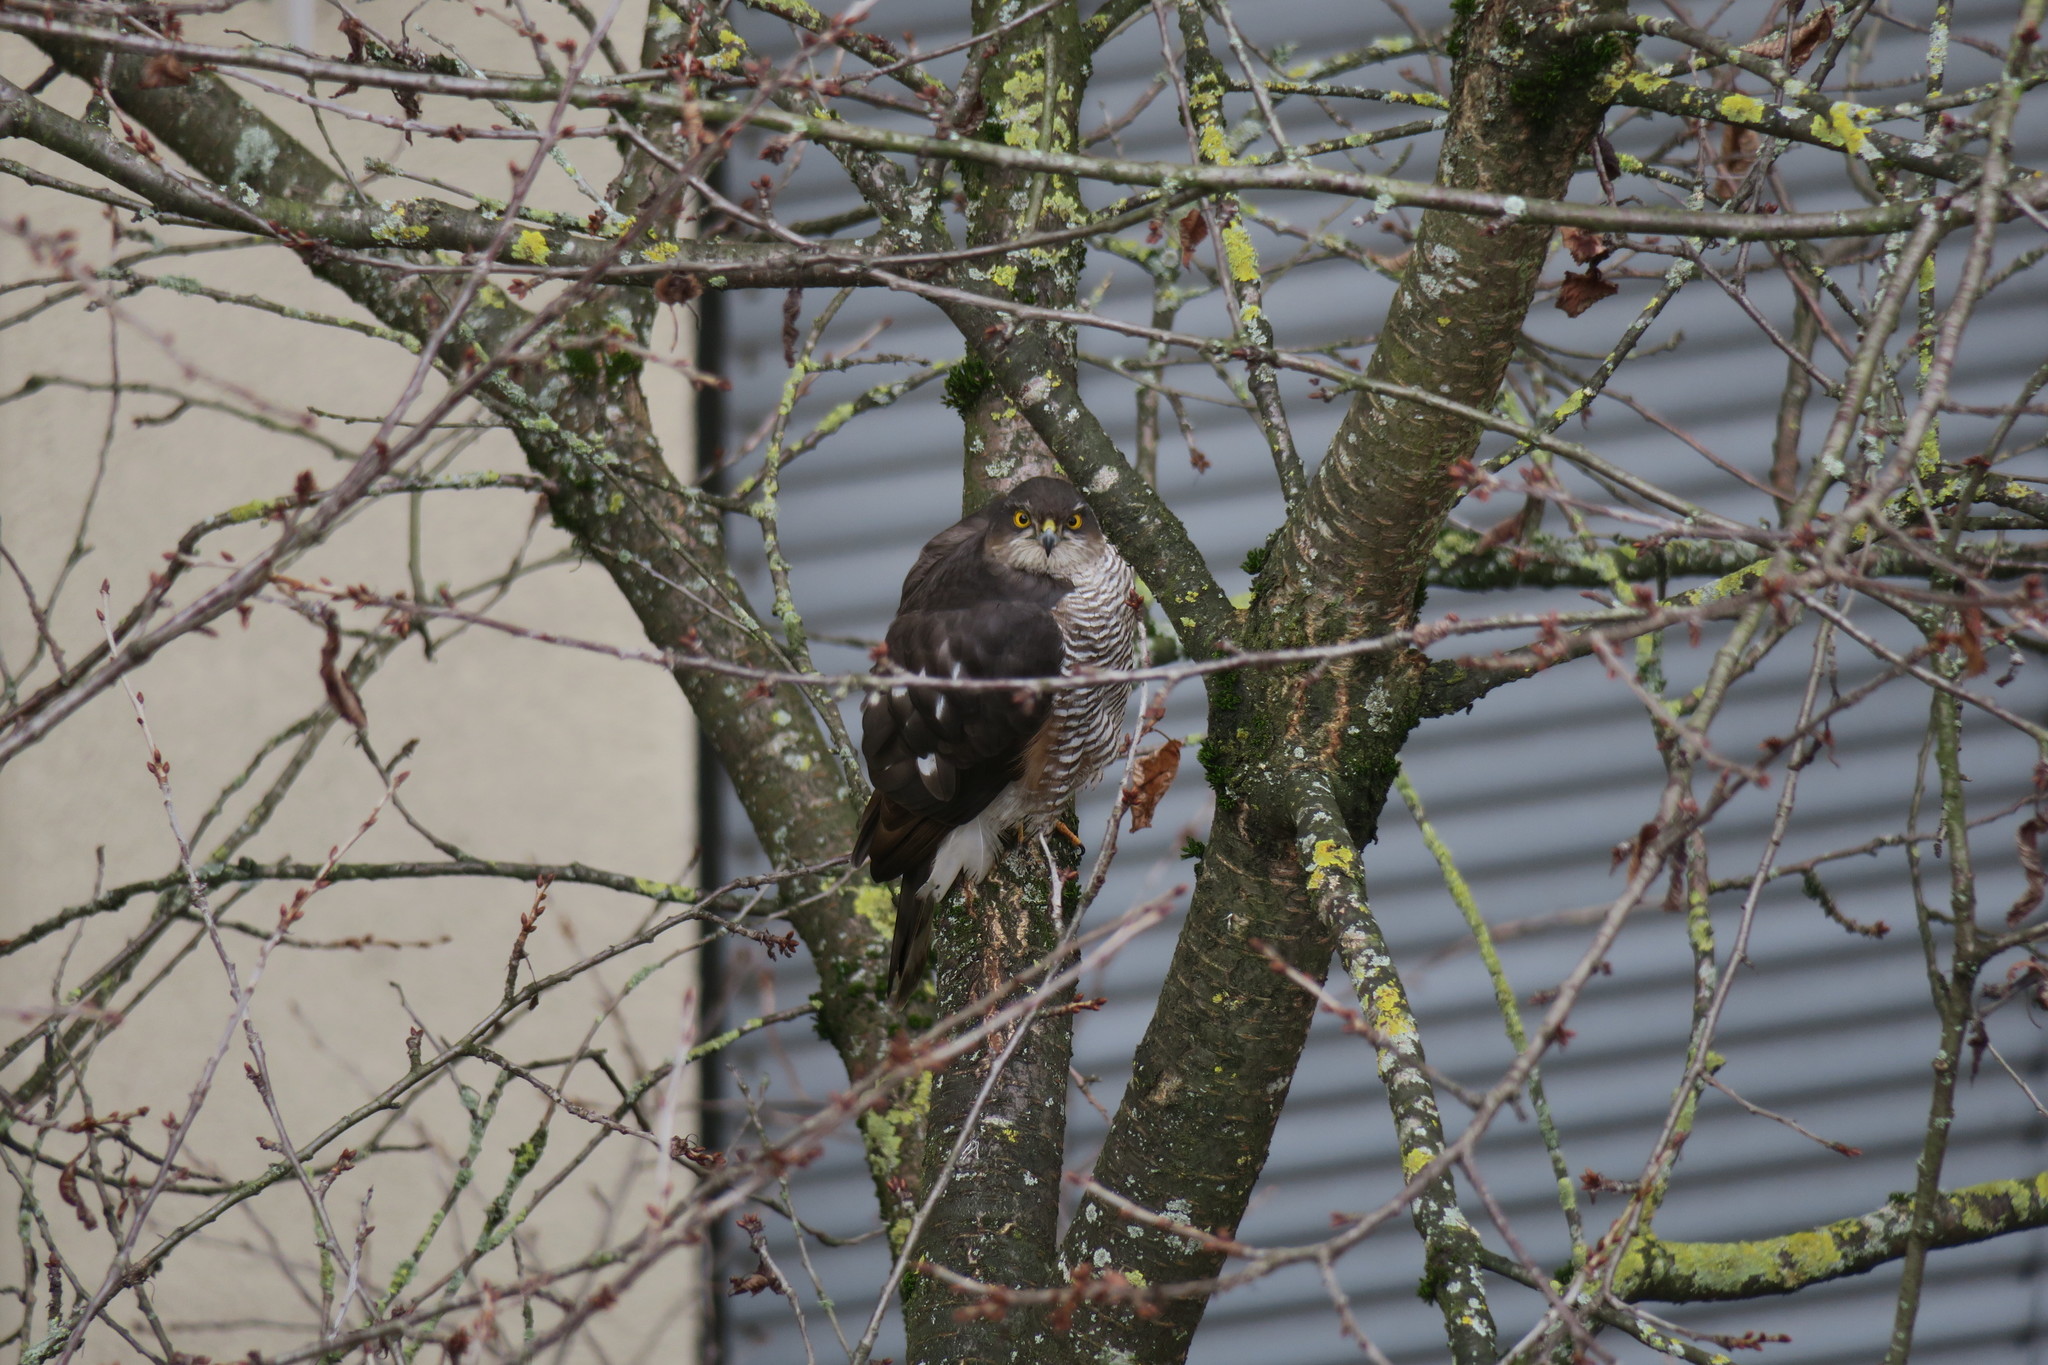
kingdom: Animalia
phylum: Chordata
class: Aves
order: Accipitriformes
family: Accipitridae
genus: Accipiter
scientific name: Accipiter nisus
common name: Eurasian sparrowhawk
